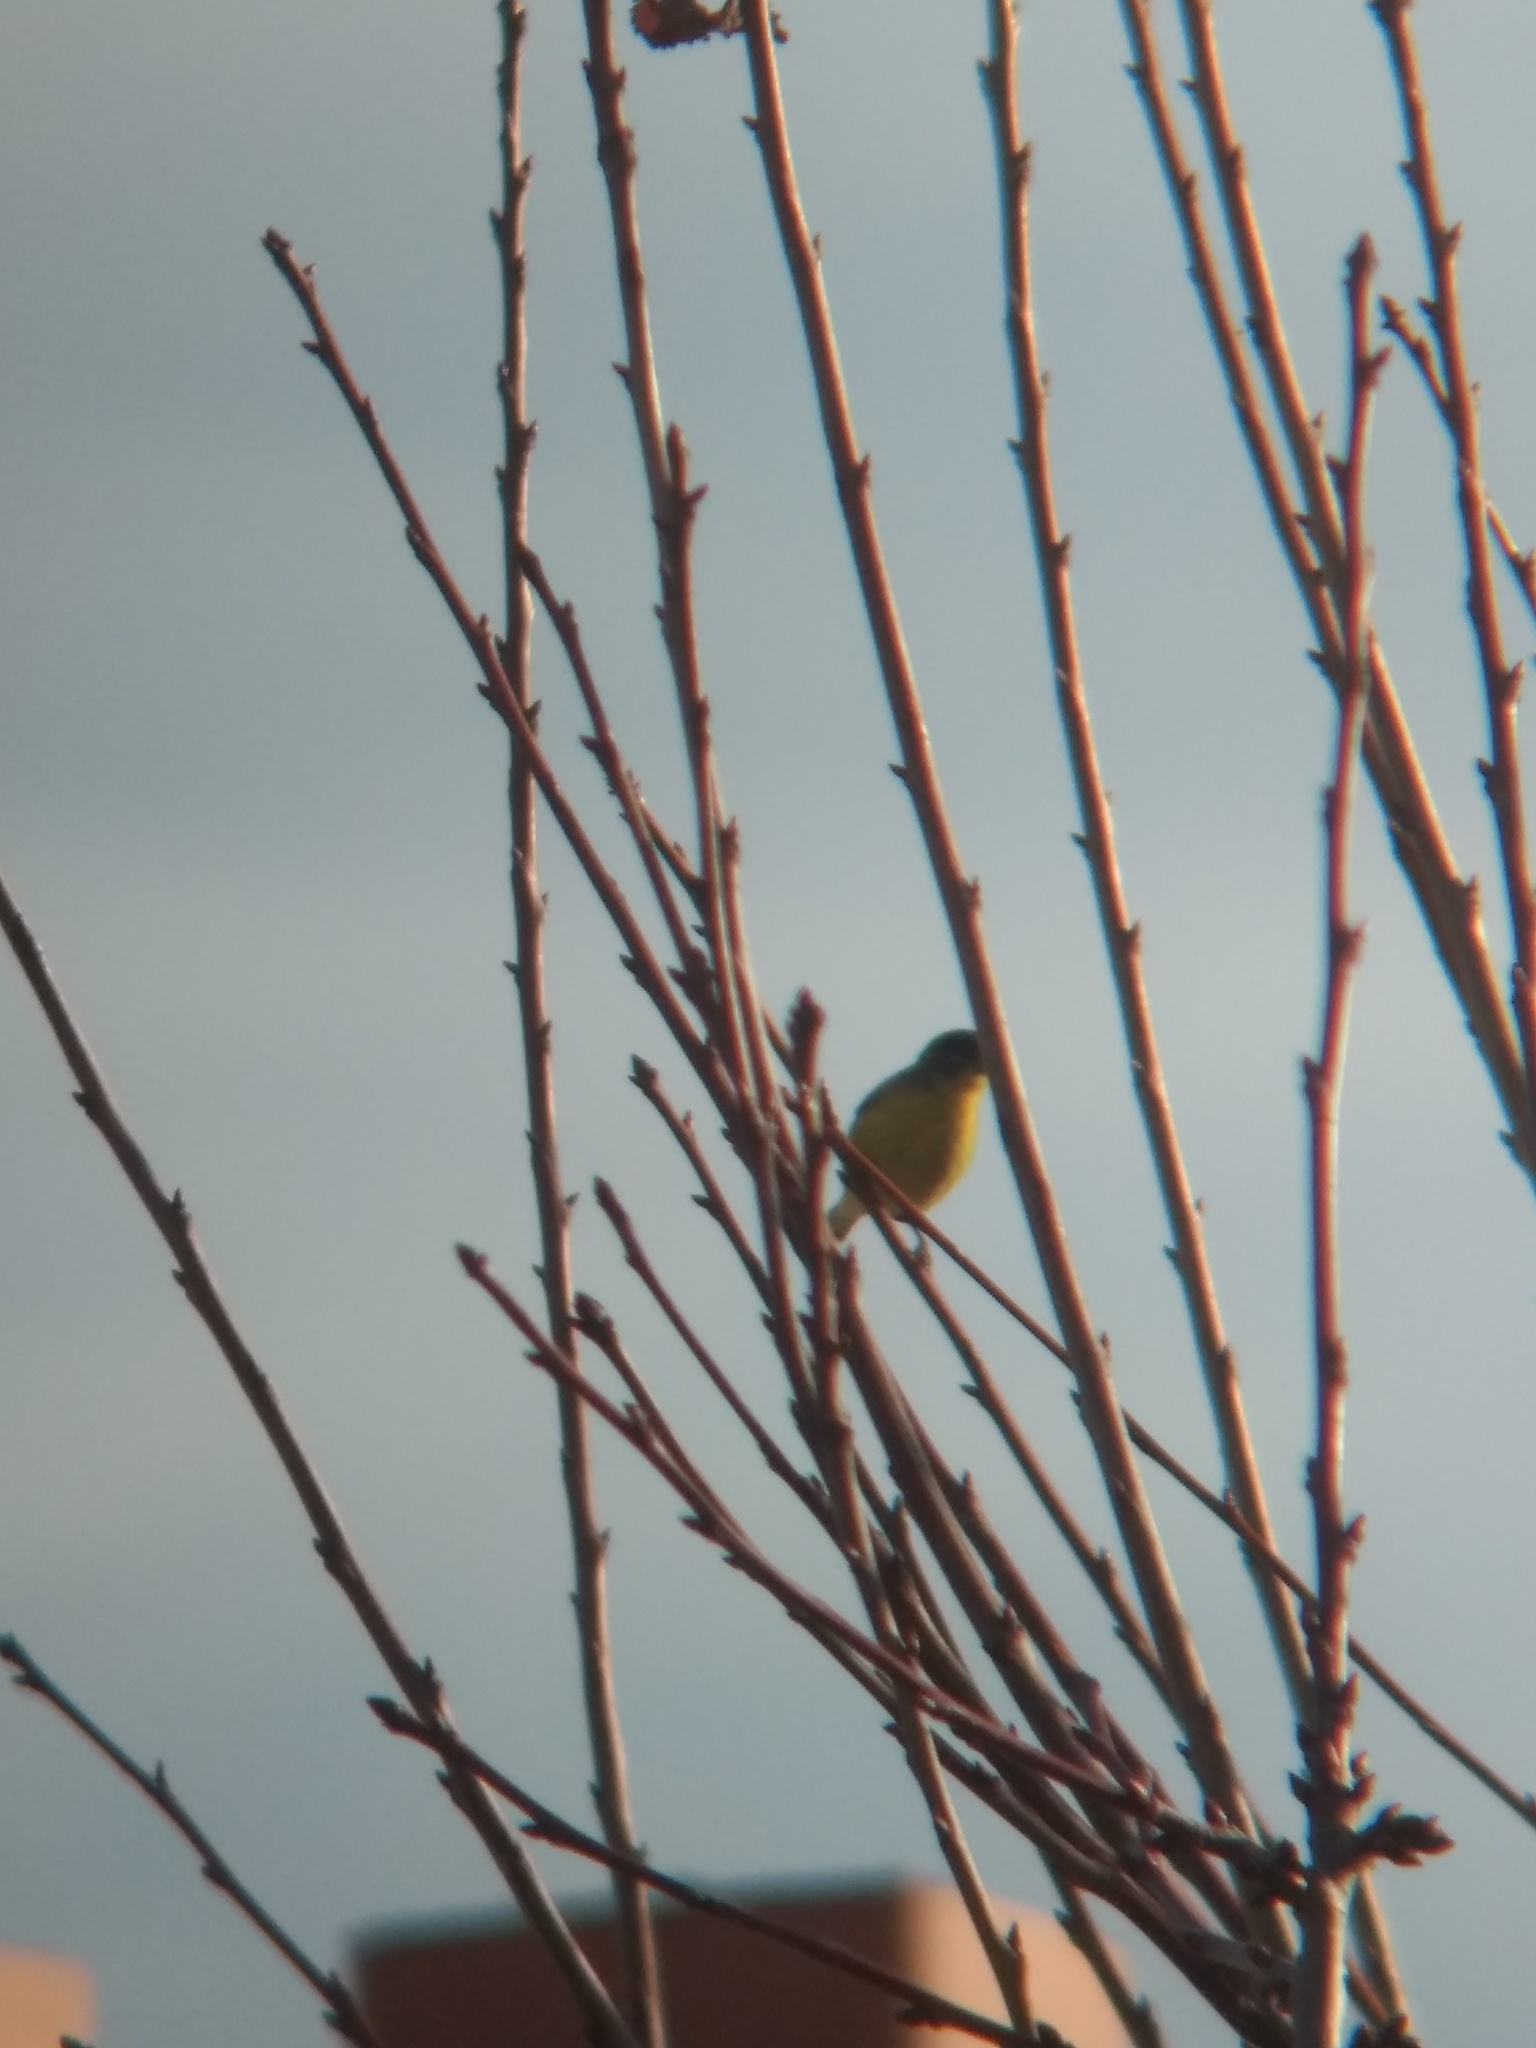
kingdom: Animalia
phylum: Chordata
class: Aves
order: Passeriformes
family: Fringillidae
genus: Spinus
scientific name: Spinus psaltria
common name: Lesser goldfinch
